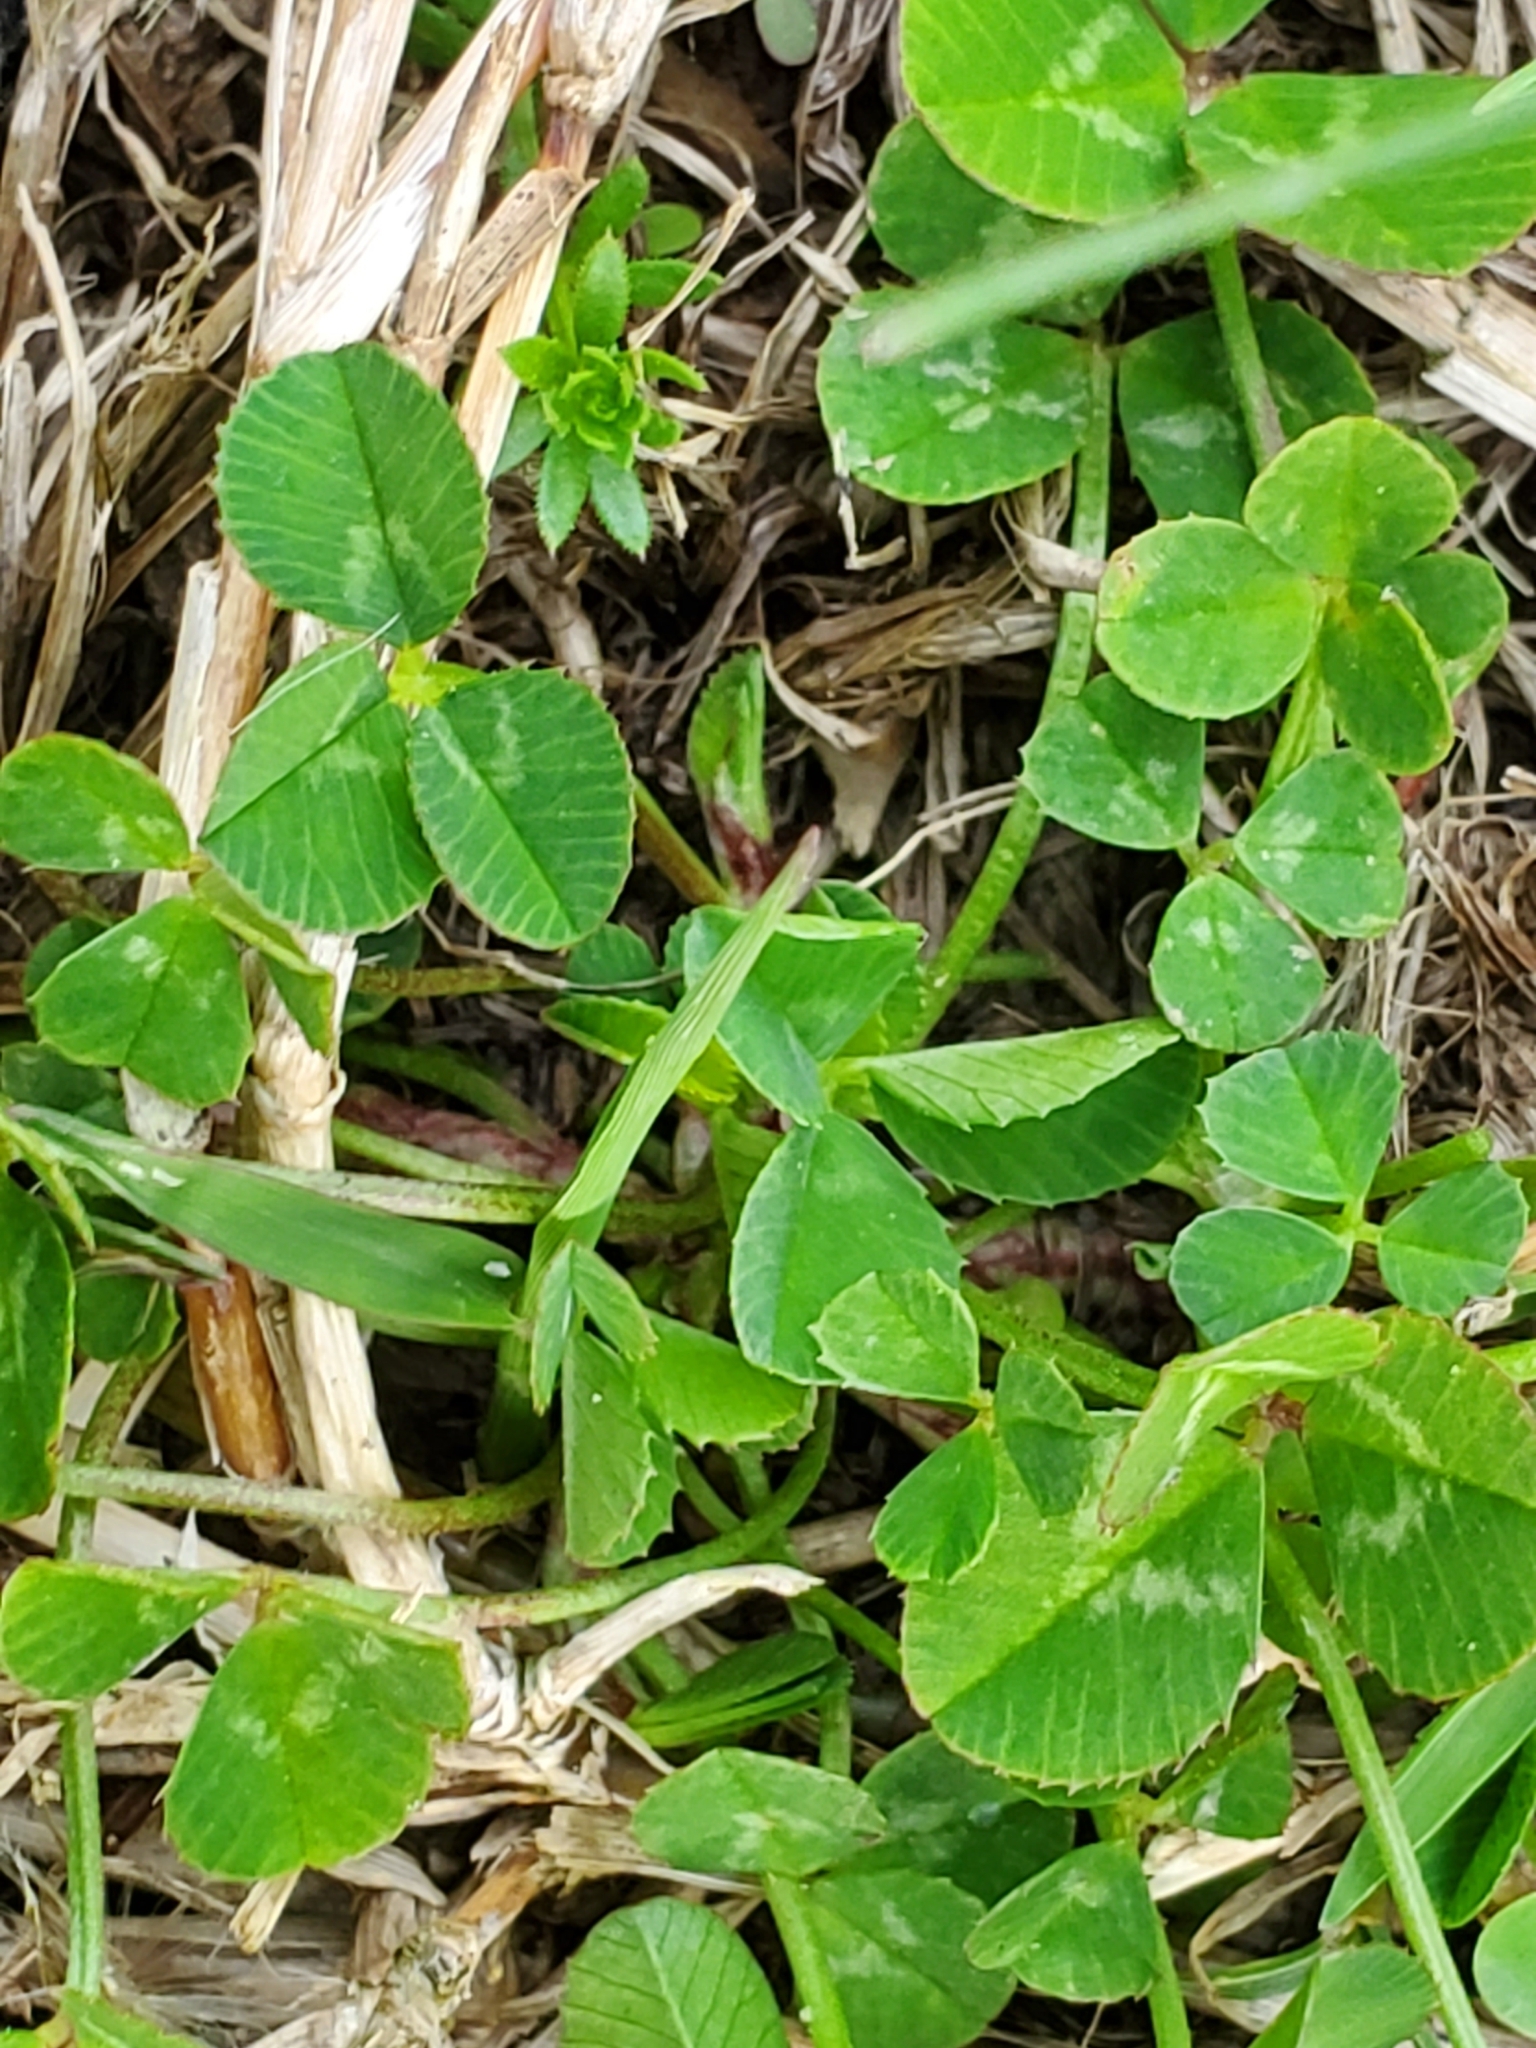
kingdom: Plantae
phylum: Tracheophyta
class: Magnoliopsida
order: Fabales
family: Fabaceae
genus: Trifolium
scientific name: Trifolium repens
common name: White clover
